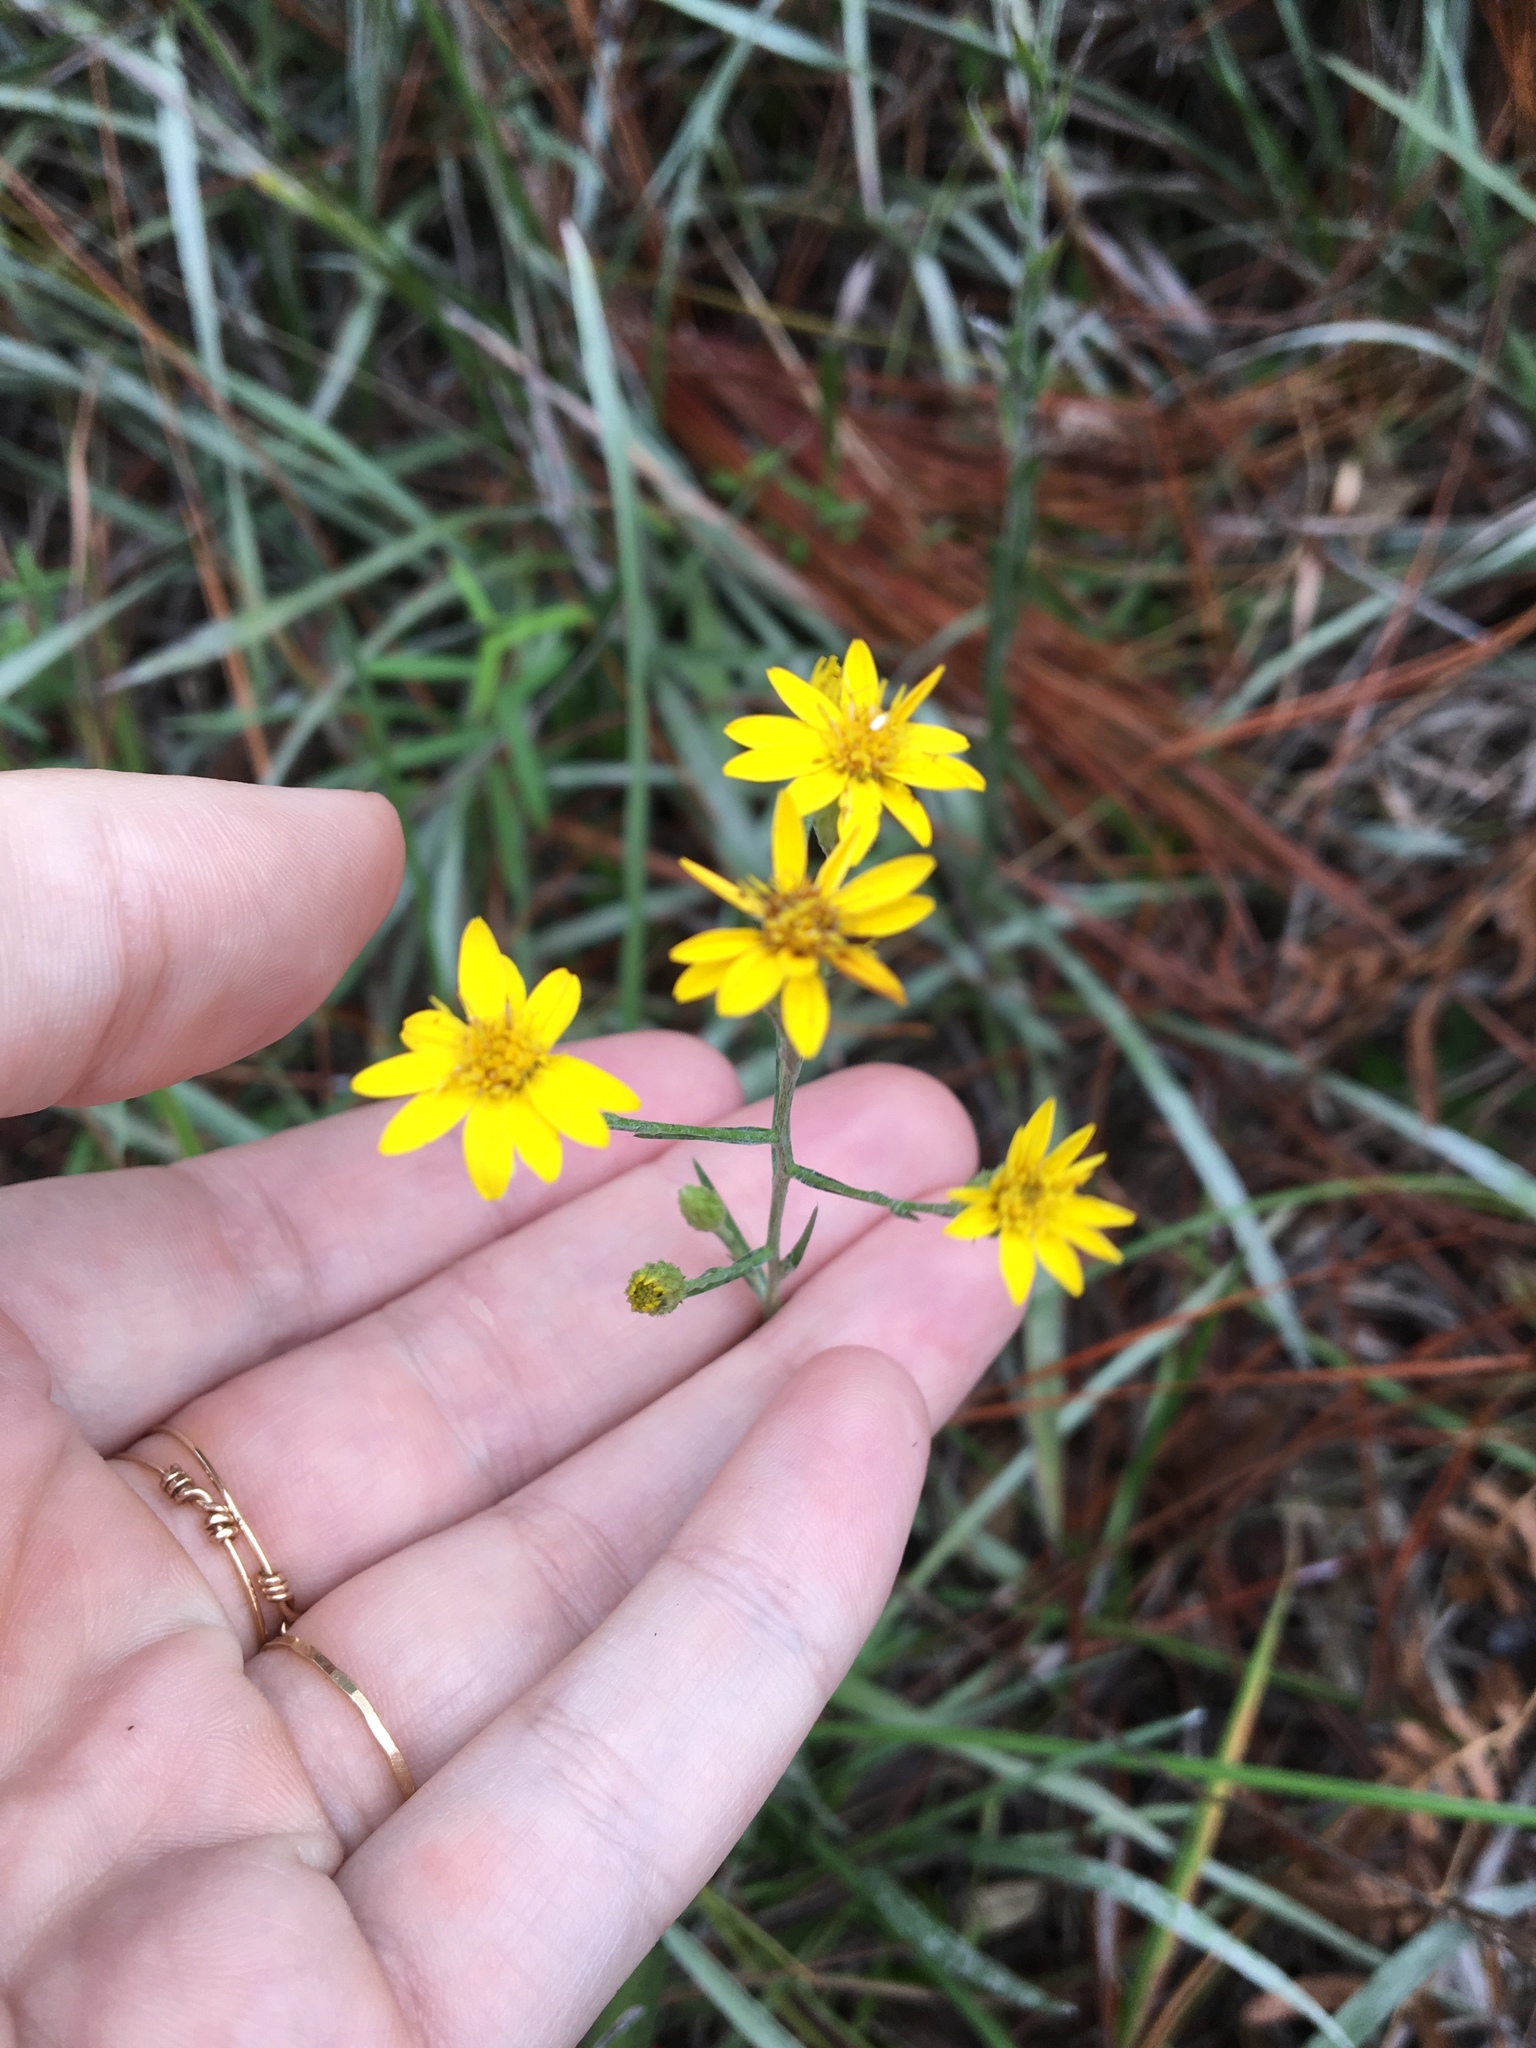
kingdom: Plantae
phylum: Tracheophyta
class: Magnoliopsida
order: Asterales
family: Asteraceae
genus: Pityopsis
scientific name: Pityopsis graminifolia
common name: Grass-leaf golden-aster
